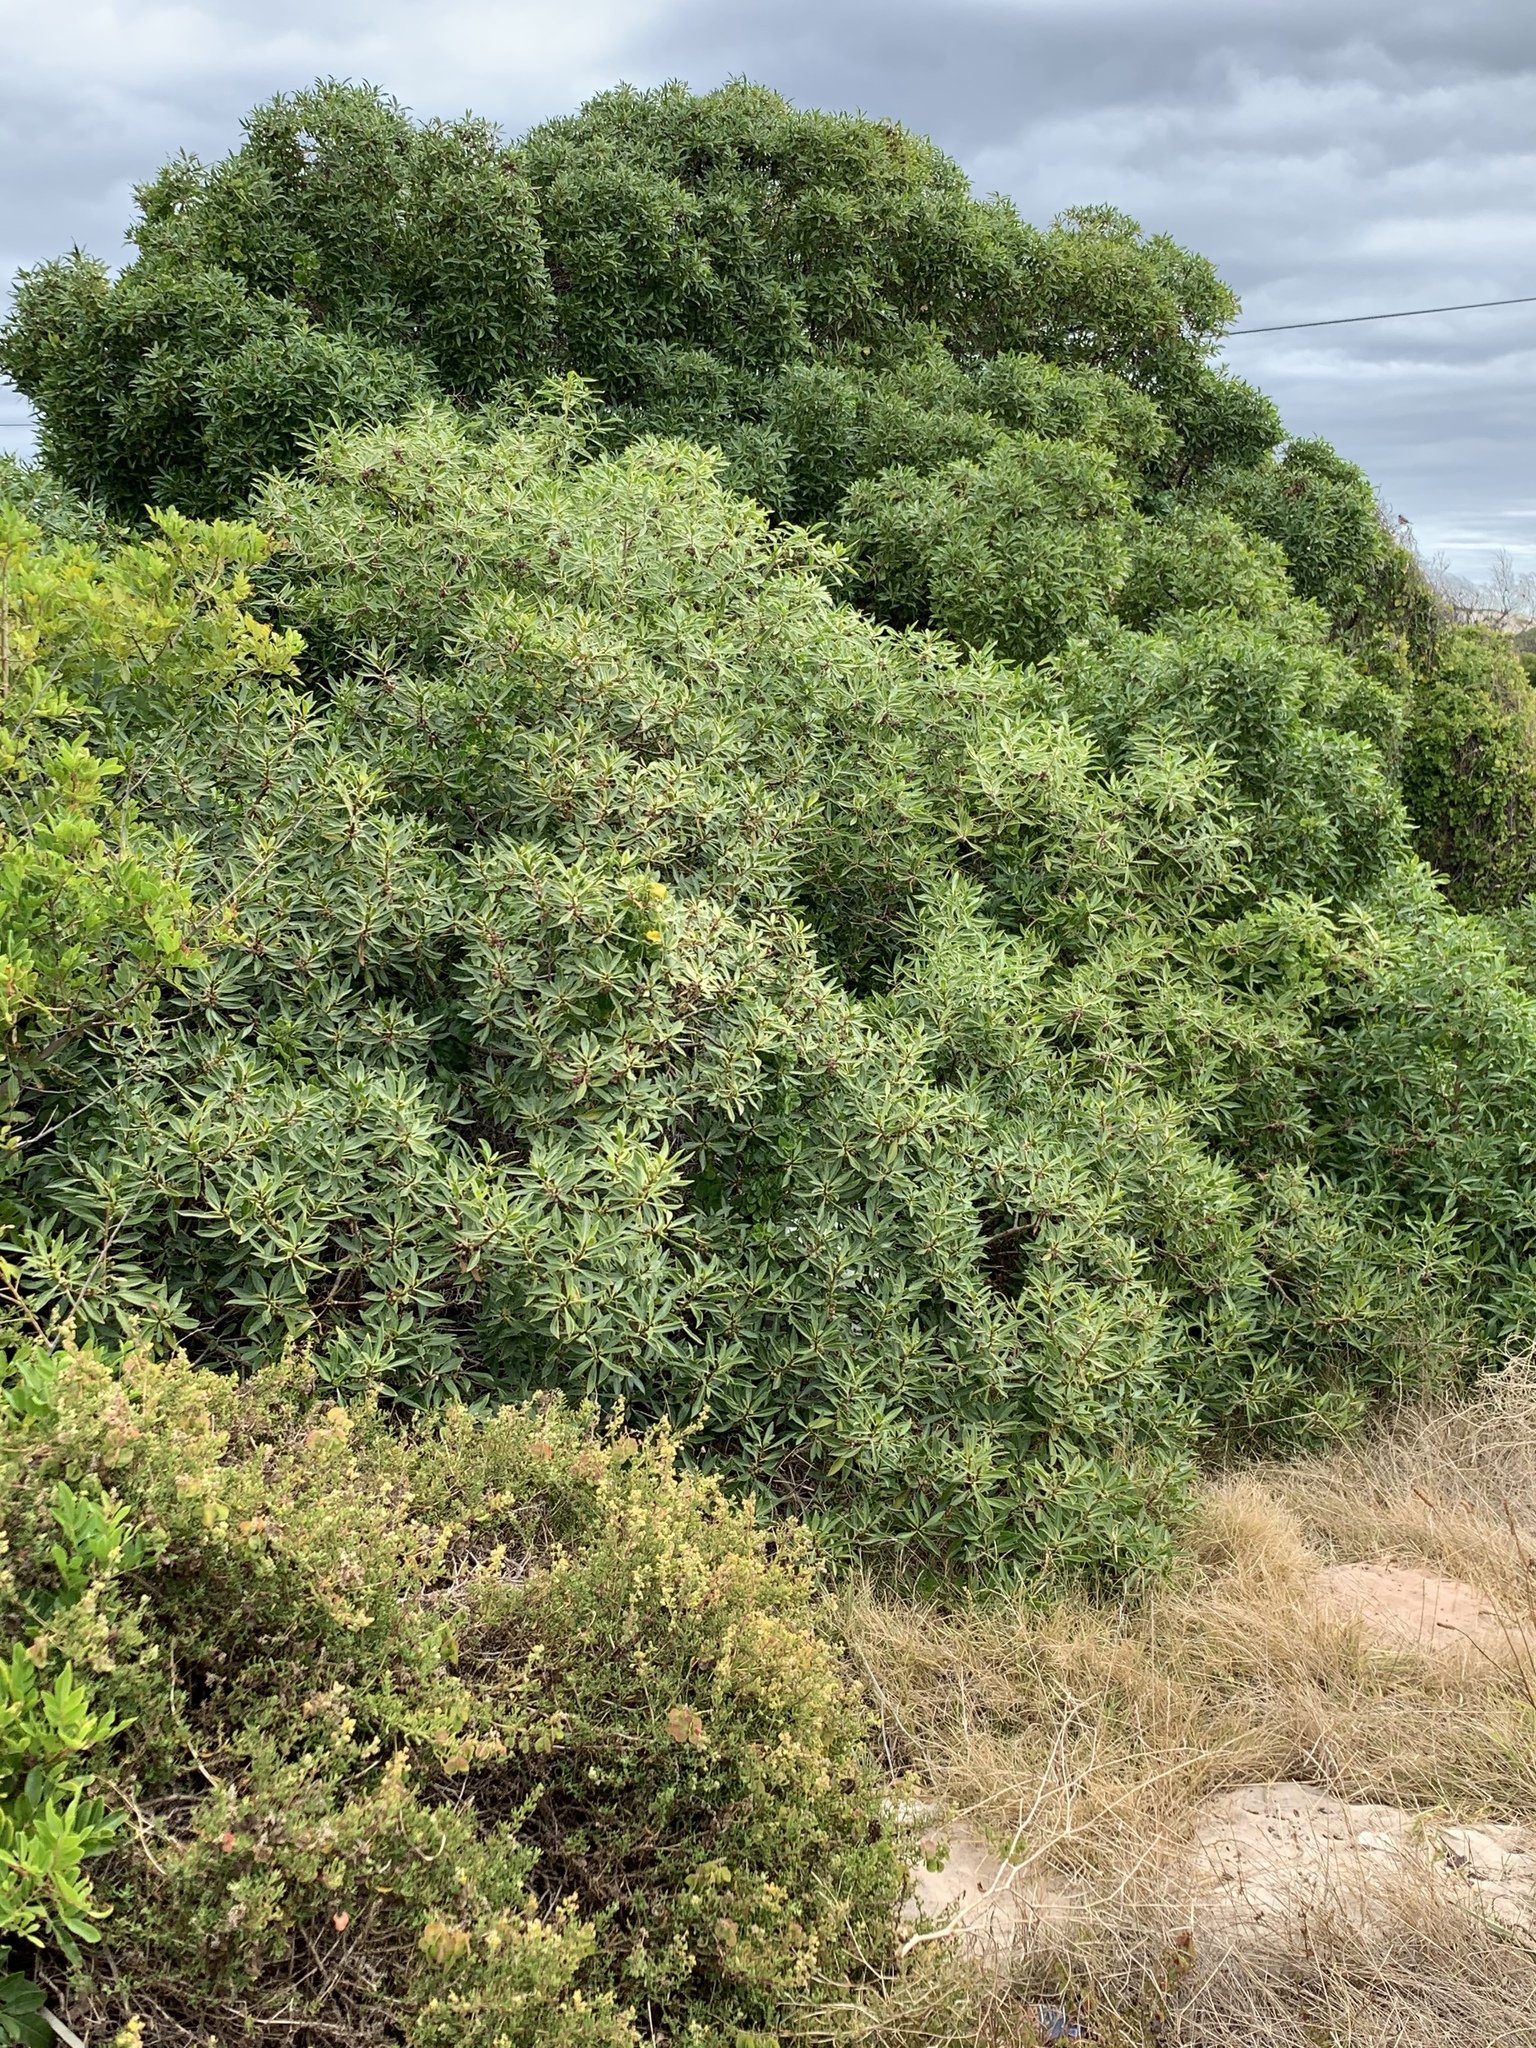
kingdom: Plantae
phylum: Tracheophyta
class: Magnoliopsida
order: Lamiales
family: Scrophulariaceae
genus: Myoporum
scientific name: Myoporum montanum
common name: Waterbush
